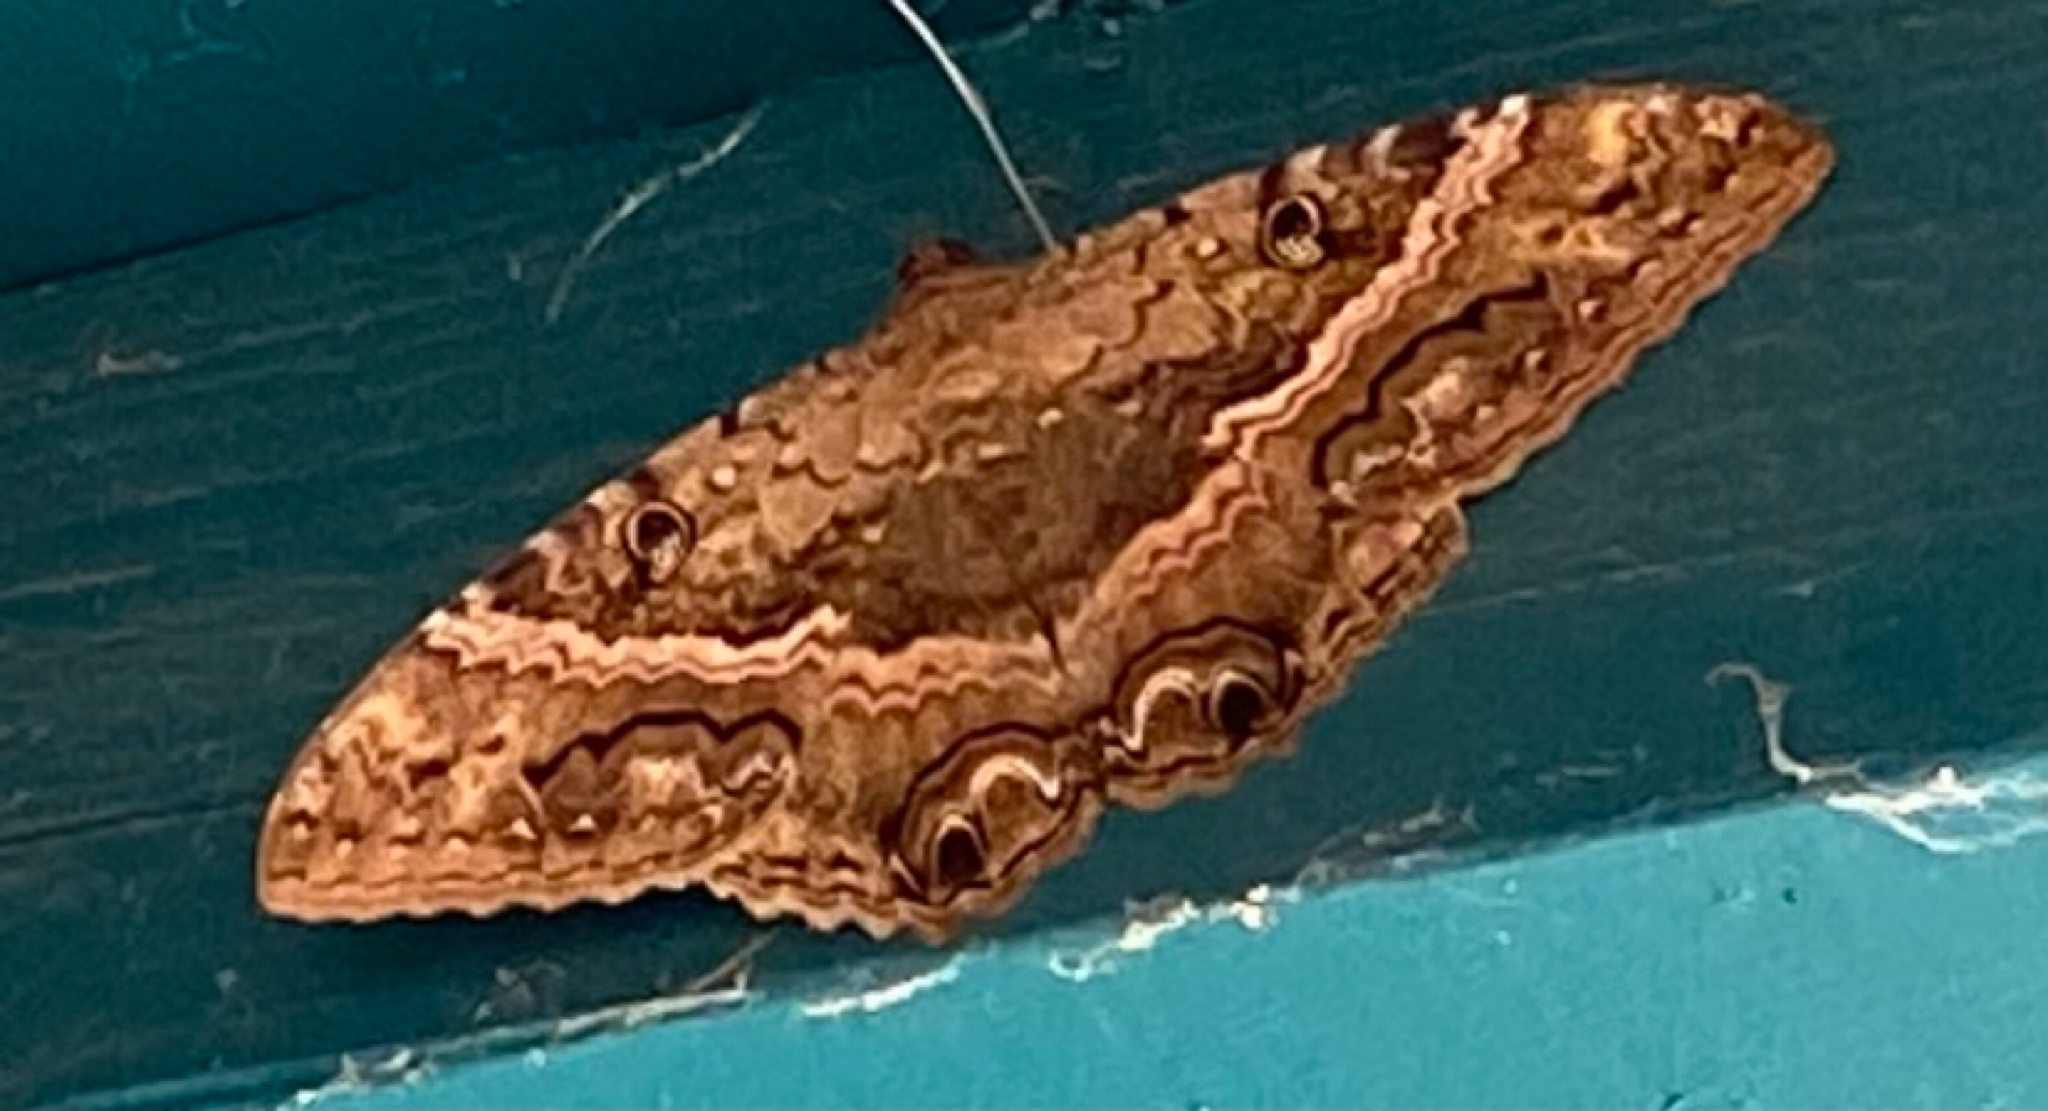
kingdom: Animalia
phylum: Arthropoda
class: Insecta
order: Lepidoptera
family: Erebidae
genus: Ascalapha
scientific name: Ascalapha odorata
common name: Black witch
